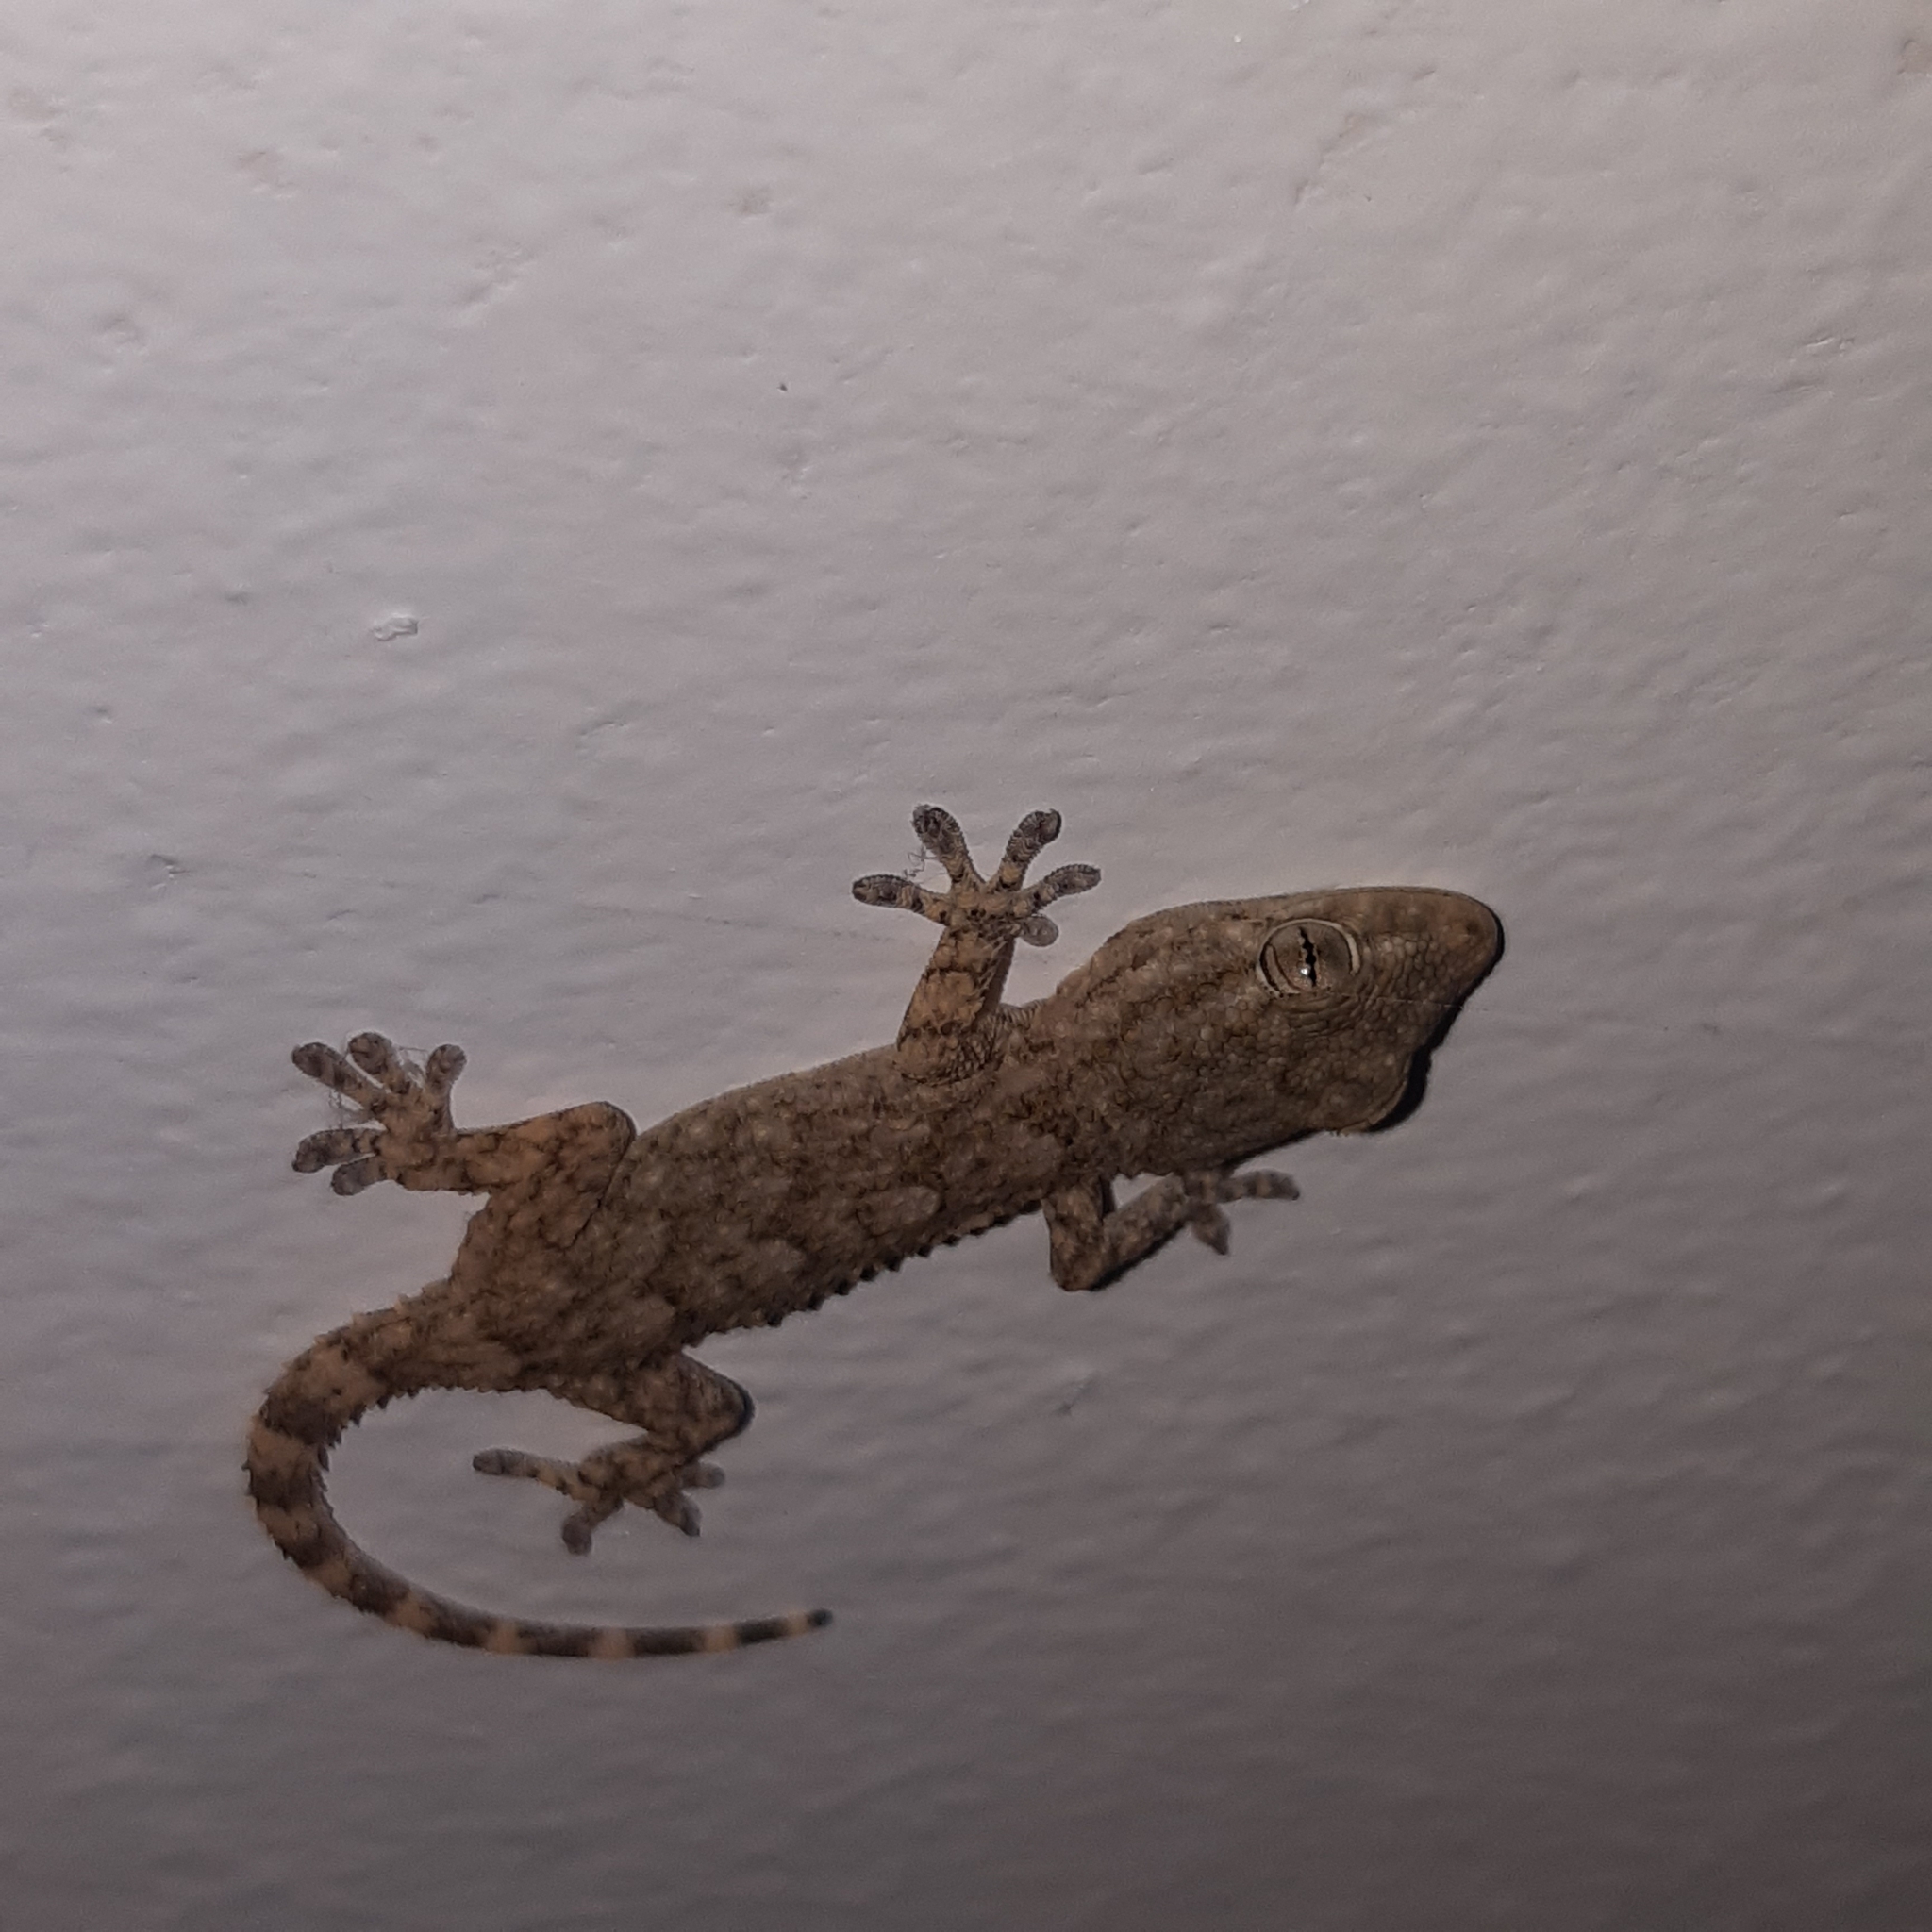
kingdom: Animalia
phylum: Chordata
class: Squamata
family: Phyllodactylidae
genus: Tarentola
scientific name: Tarentola mauritanica
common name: Moorish gecko
